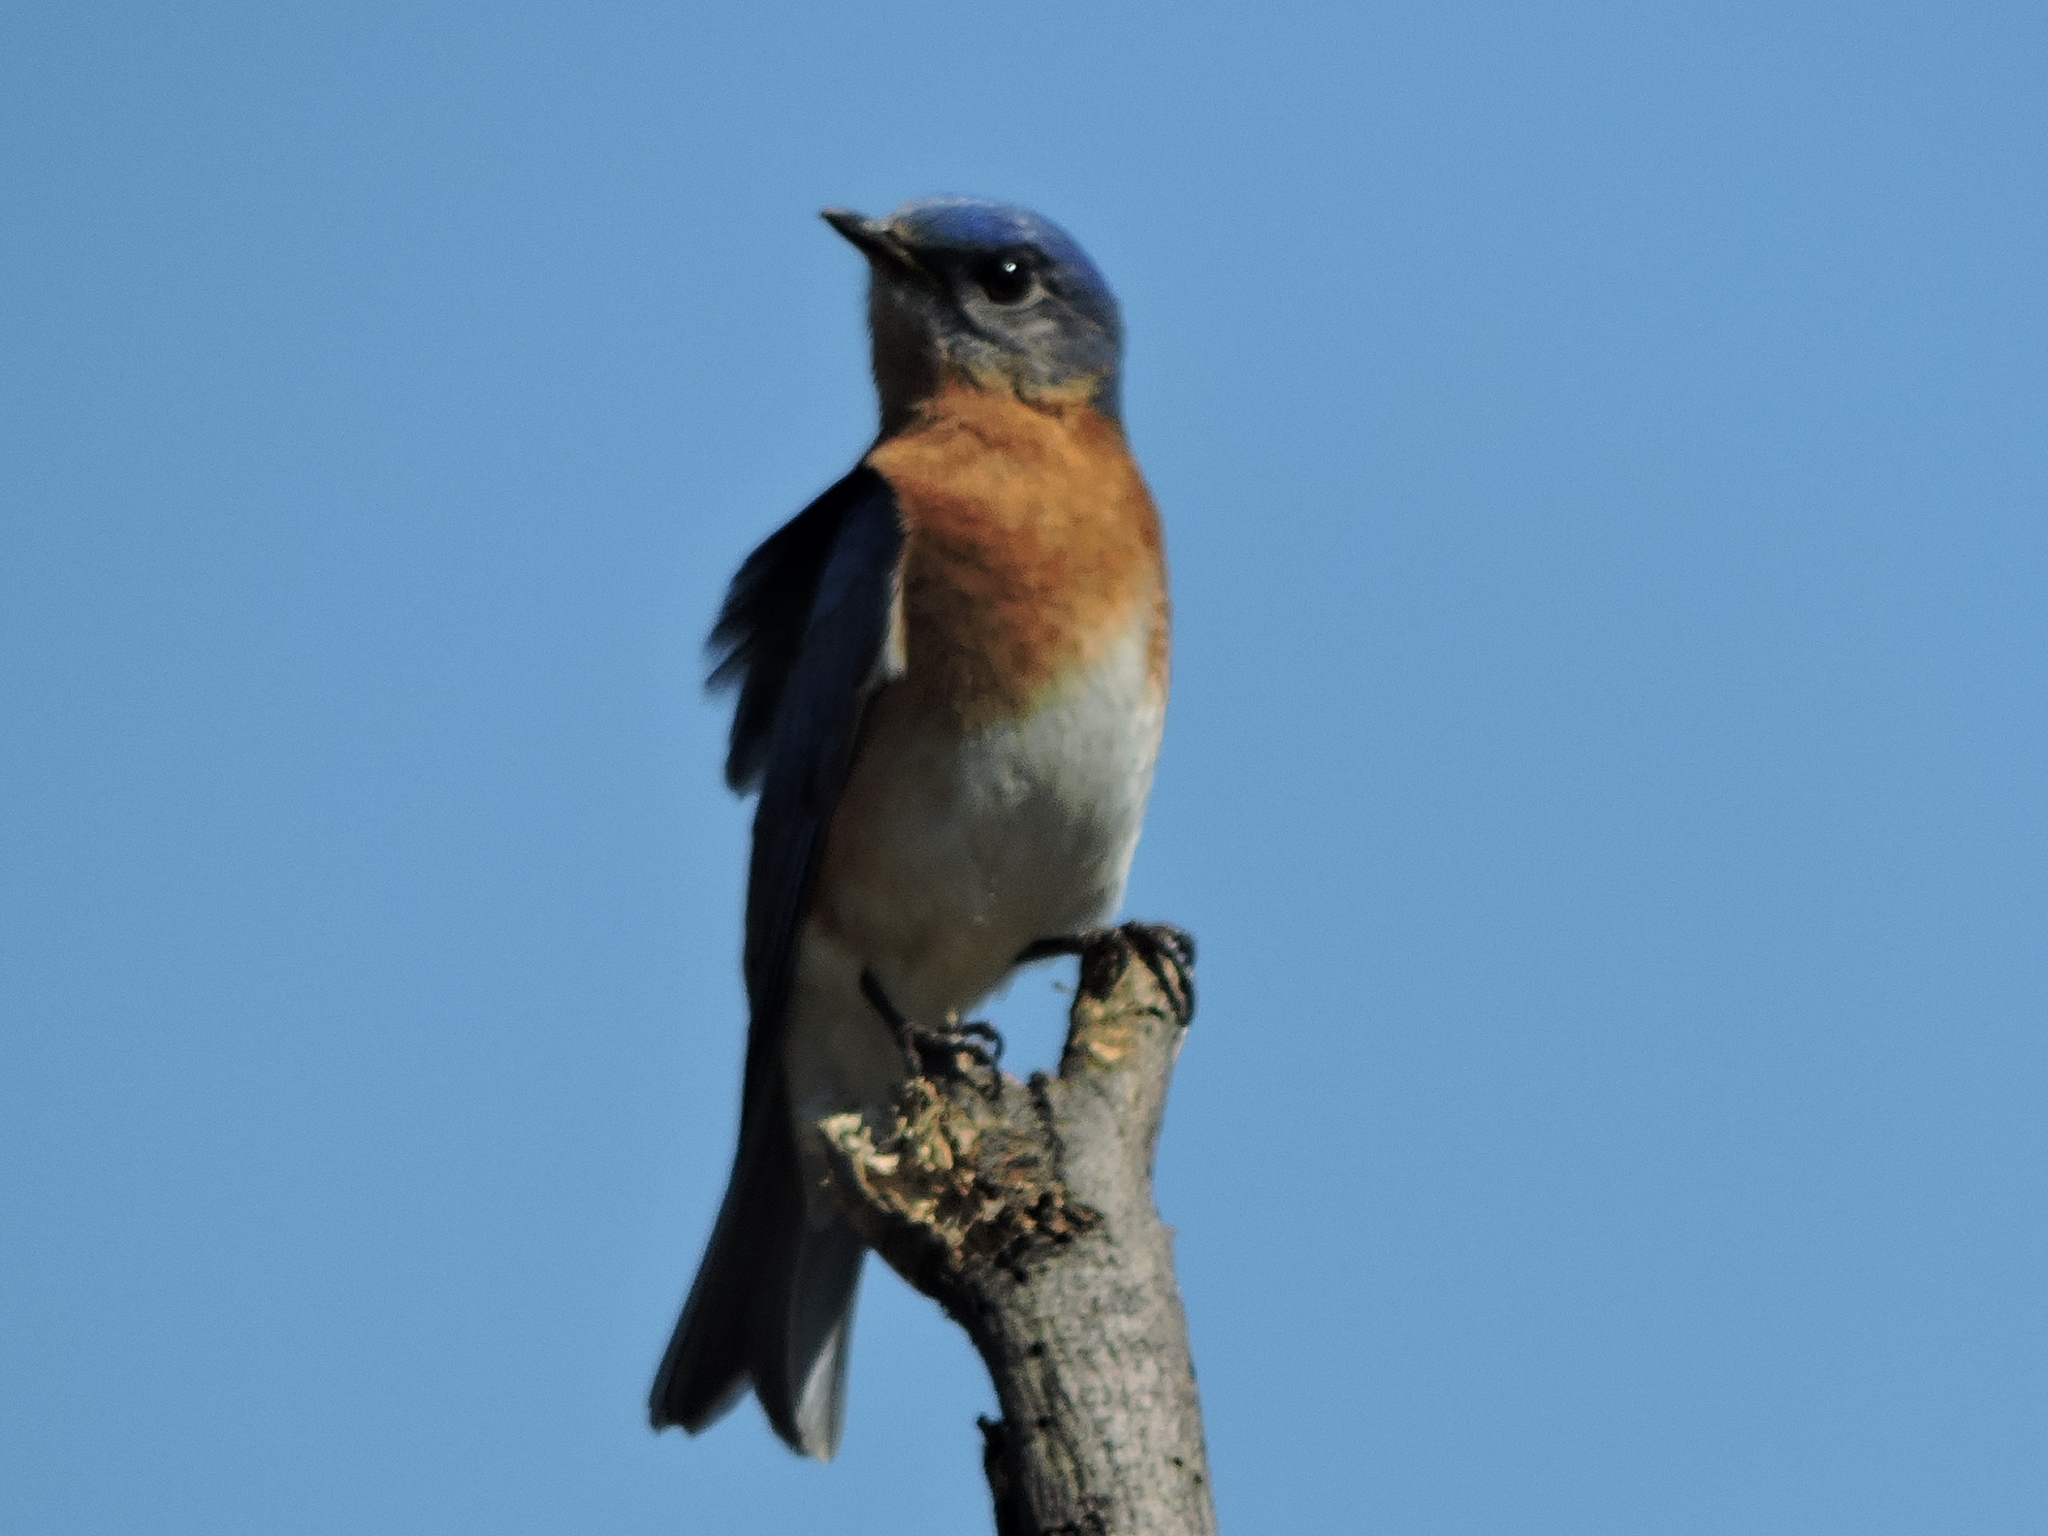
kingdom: Animalia
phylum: Chordata
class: Aves
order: Passeriformes
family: Turdidae
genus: Sialia
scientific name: Sialia sialis
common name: Eastern bluebird
